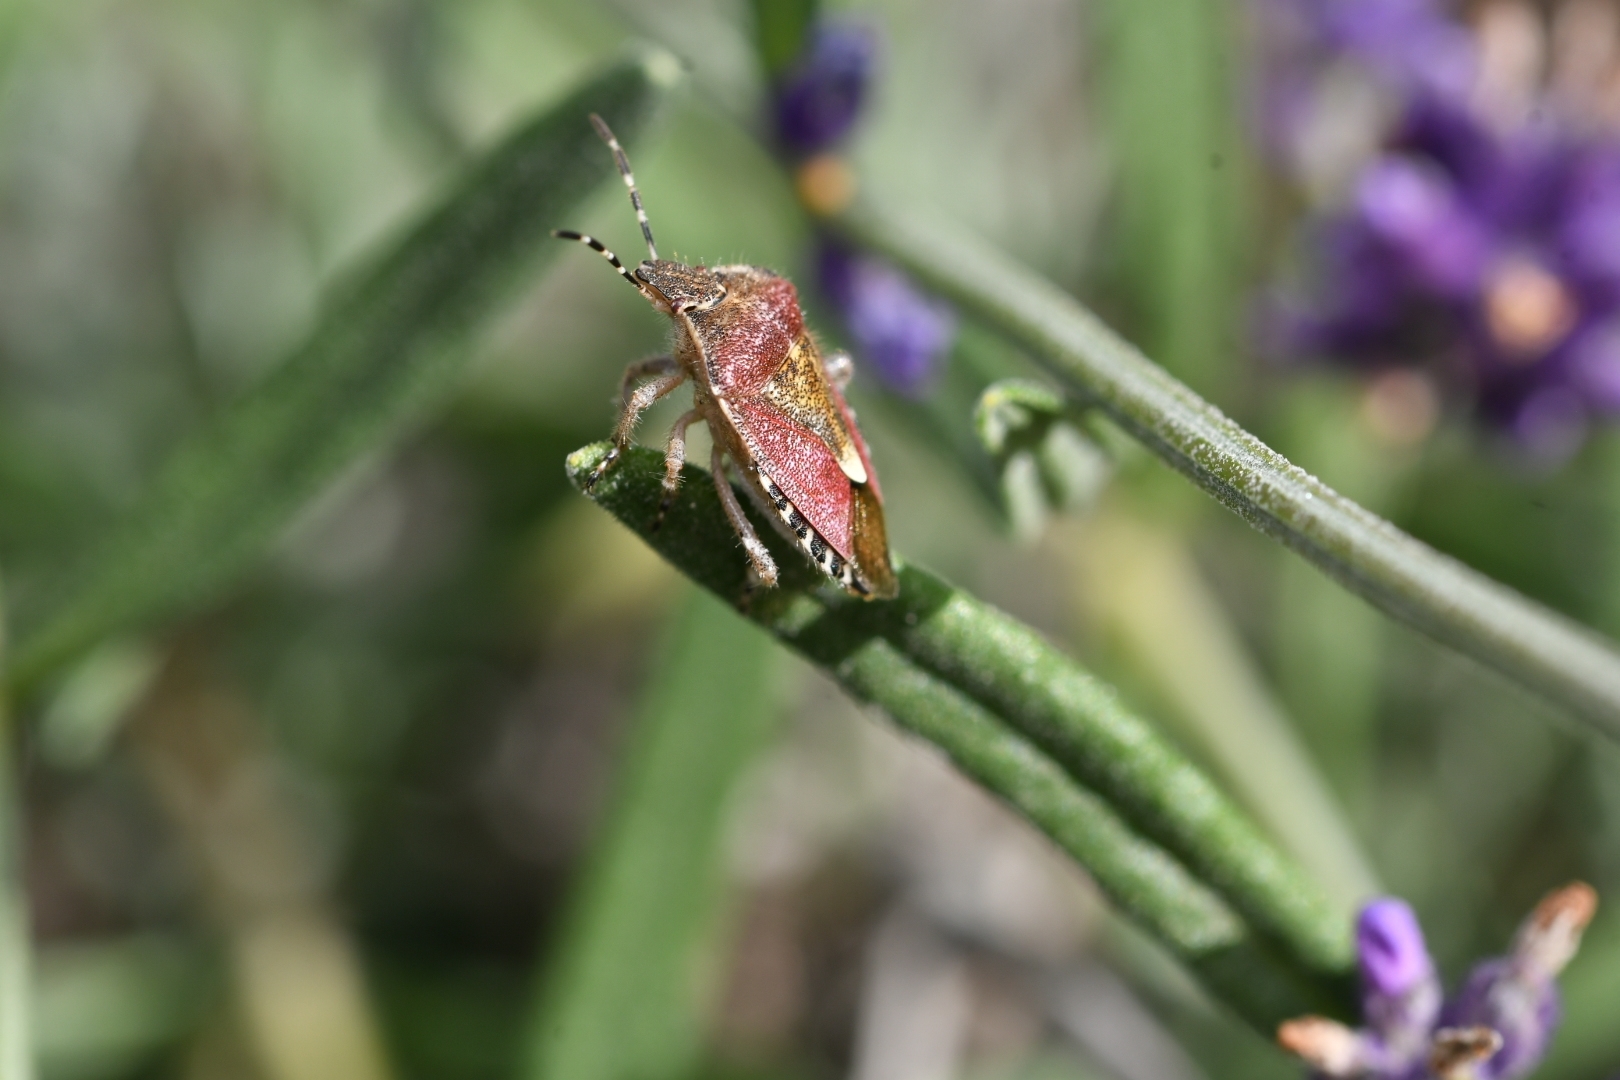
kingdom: Animalia
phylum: Arthropoda
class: Insecta
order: Hemiptera
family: Pentatomidae
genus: Dolycoris
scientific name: Dolycoris baccarum
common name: Sloe bug
